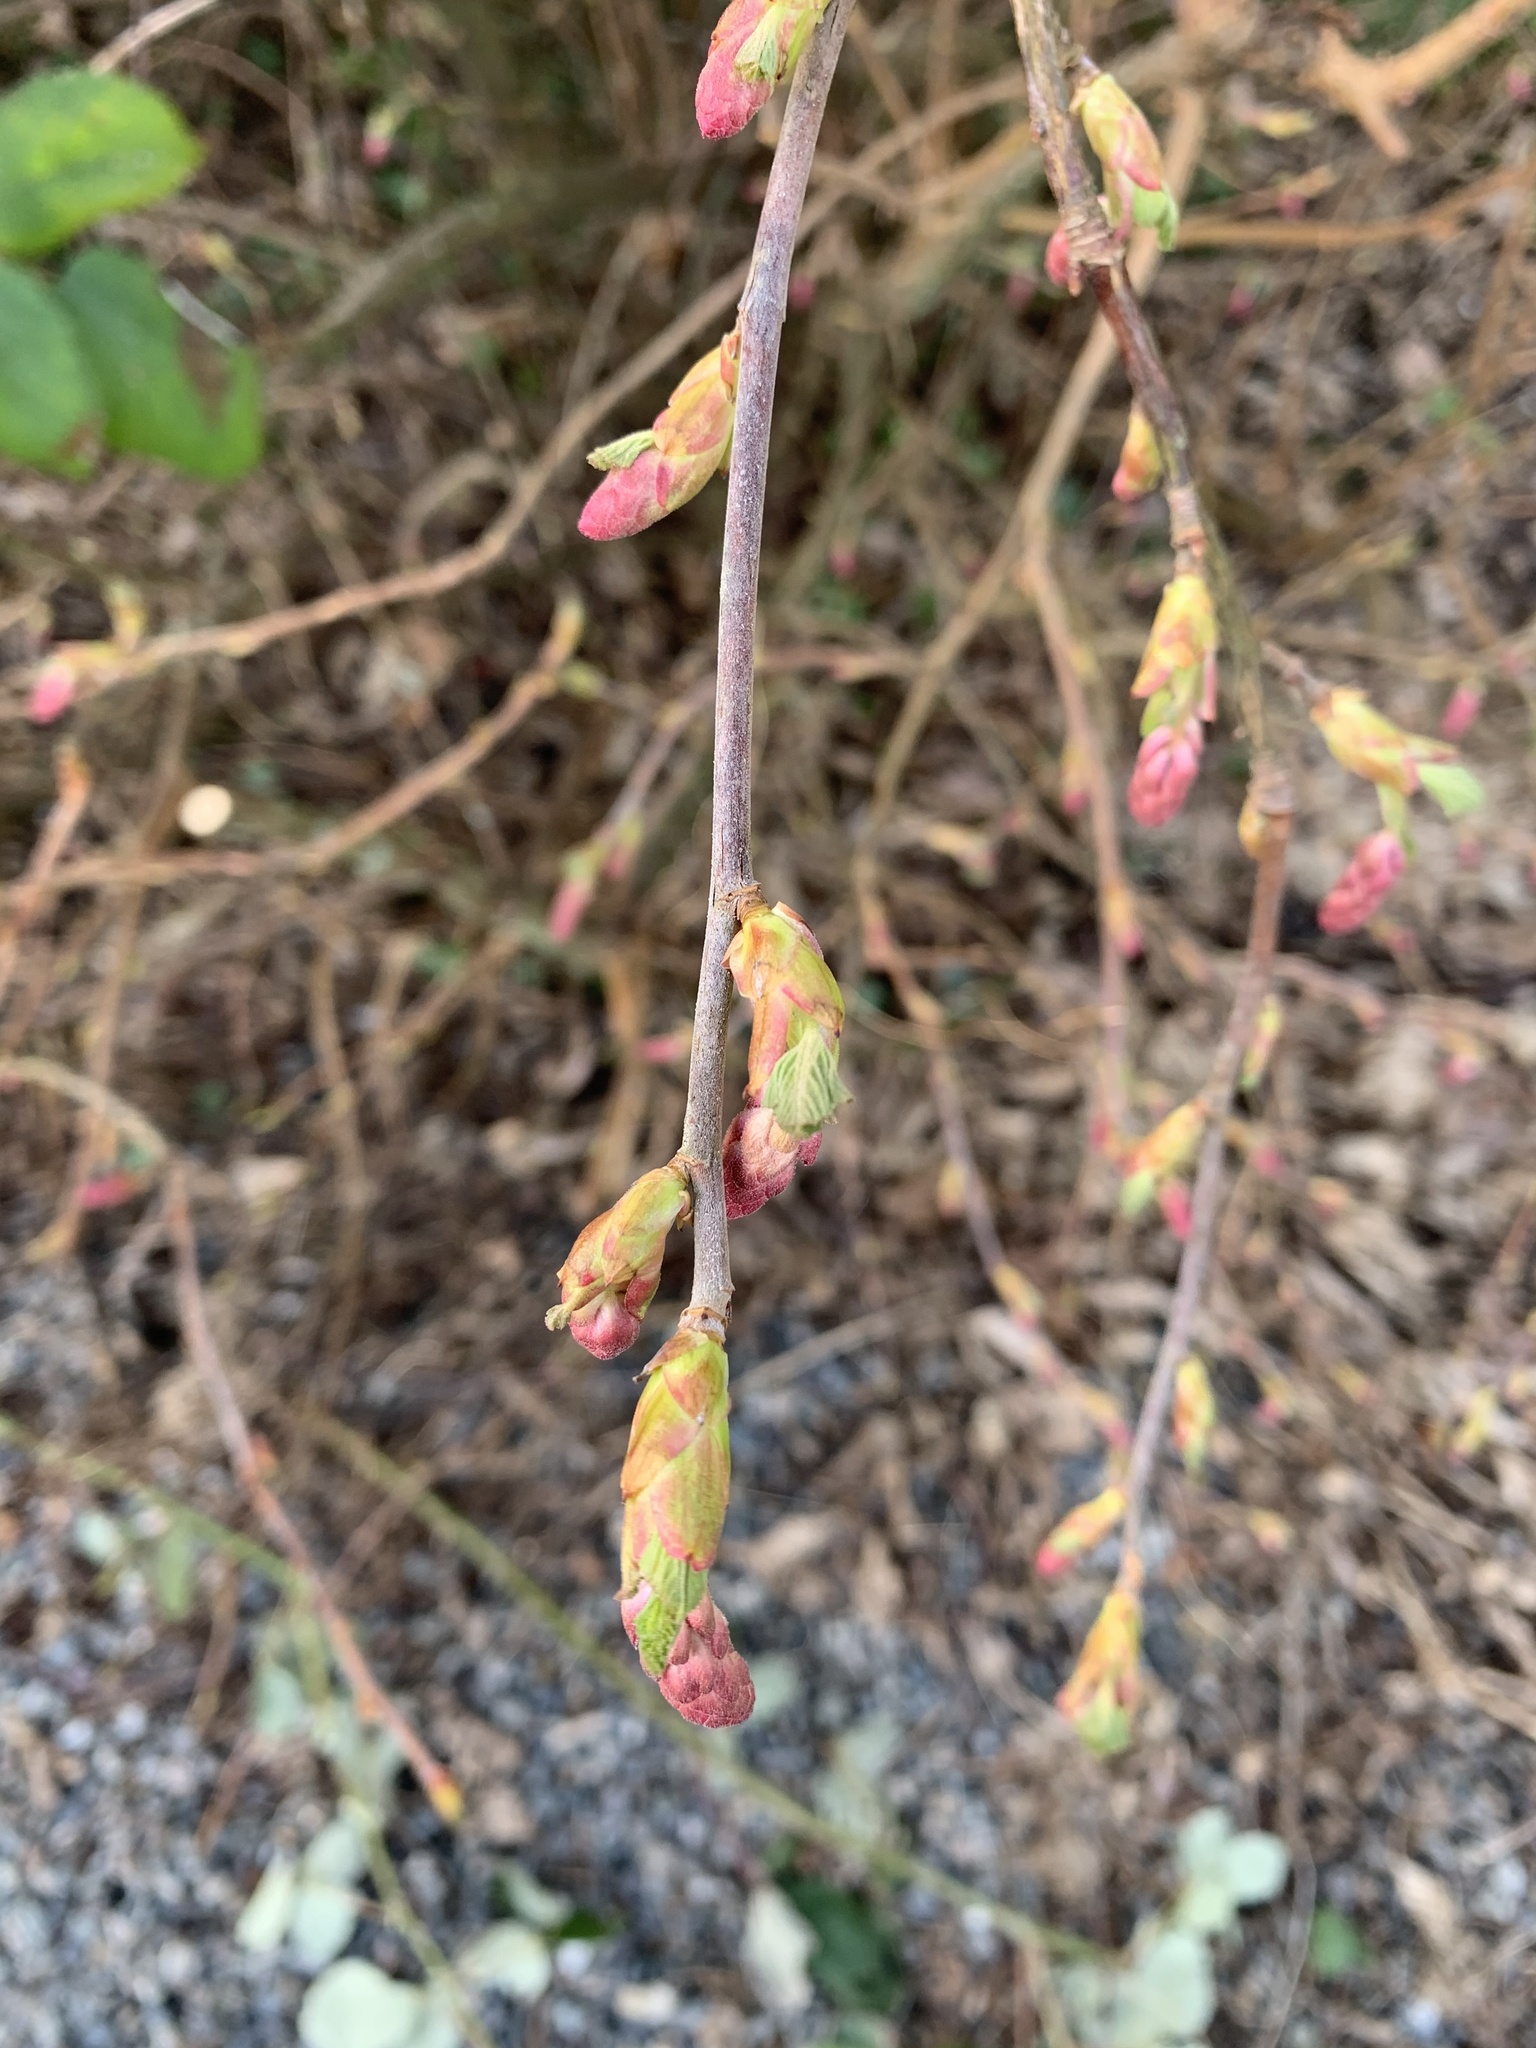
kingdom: Plantae
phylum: Tracheophyta
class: Magnoliopsida
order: Saxifragales
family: Grossulariaceae
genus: Ribes
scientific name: Ribes sanguineum
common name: Flowering currant
